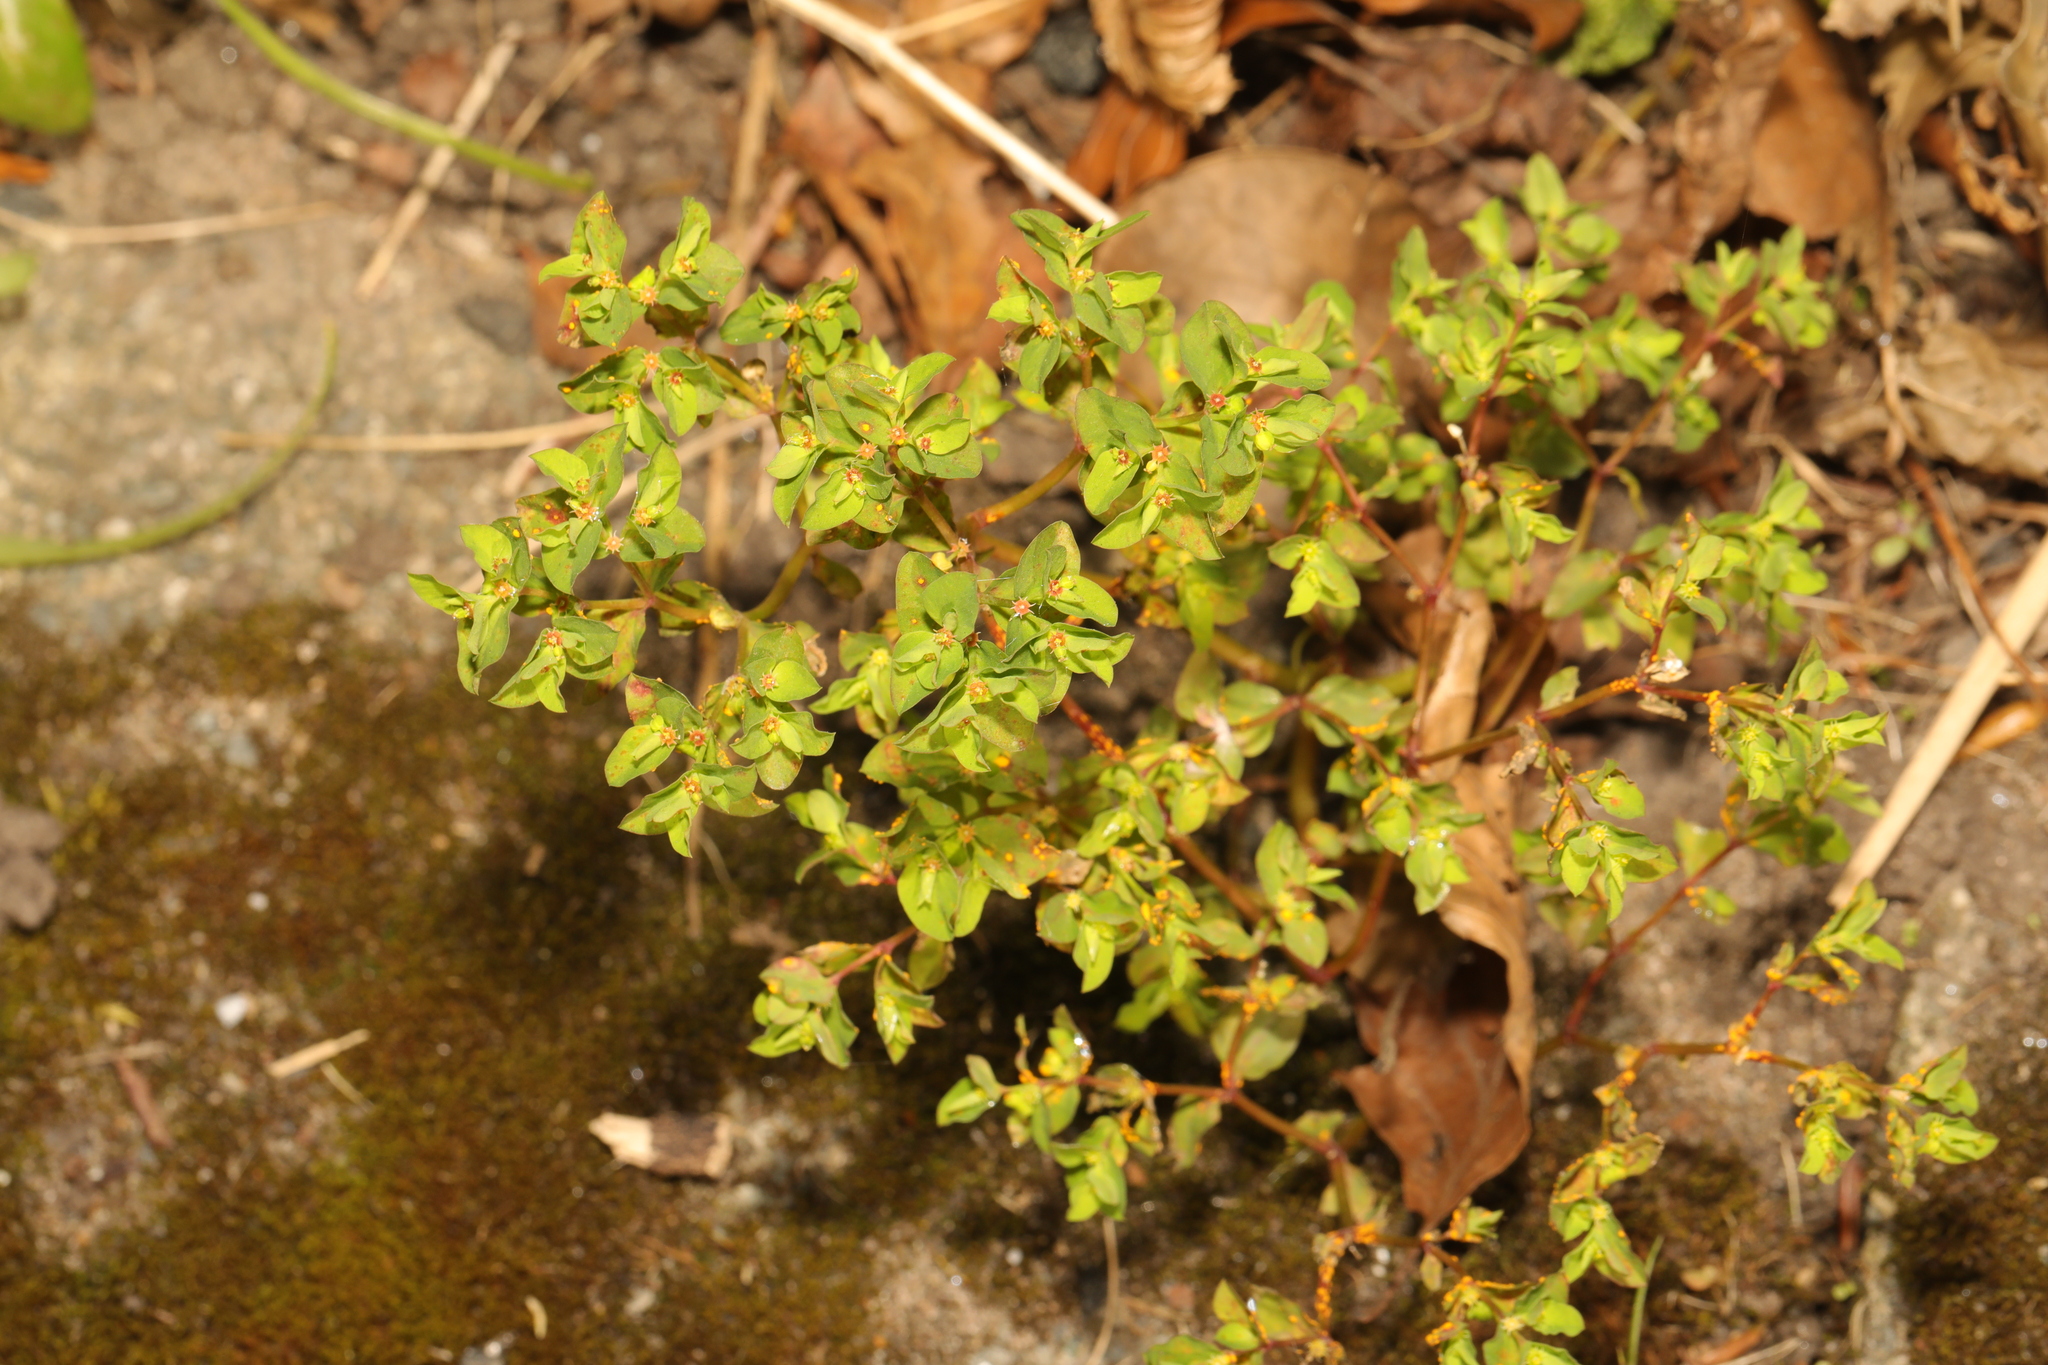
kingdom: Plantae
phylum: Tracheophyta
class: Magnoliopsida
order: Malpighiales
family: Euphorbiaceae
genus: Euphorbia
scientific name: Euphorbia peplus
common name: Petty spurge
